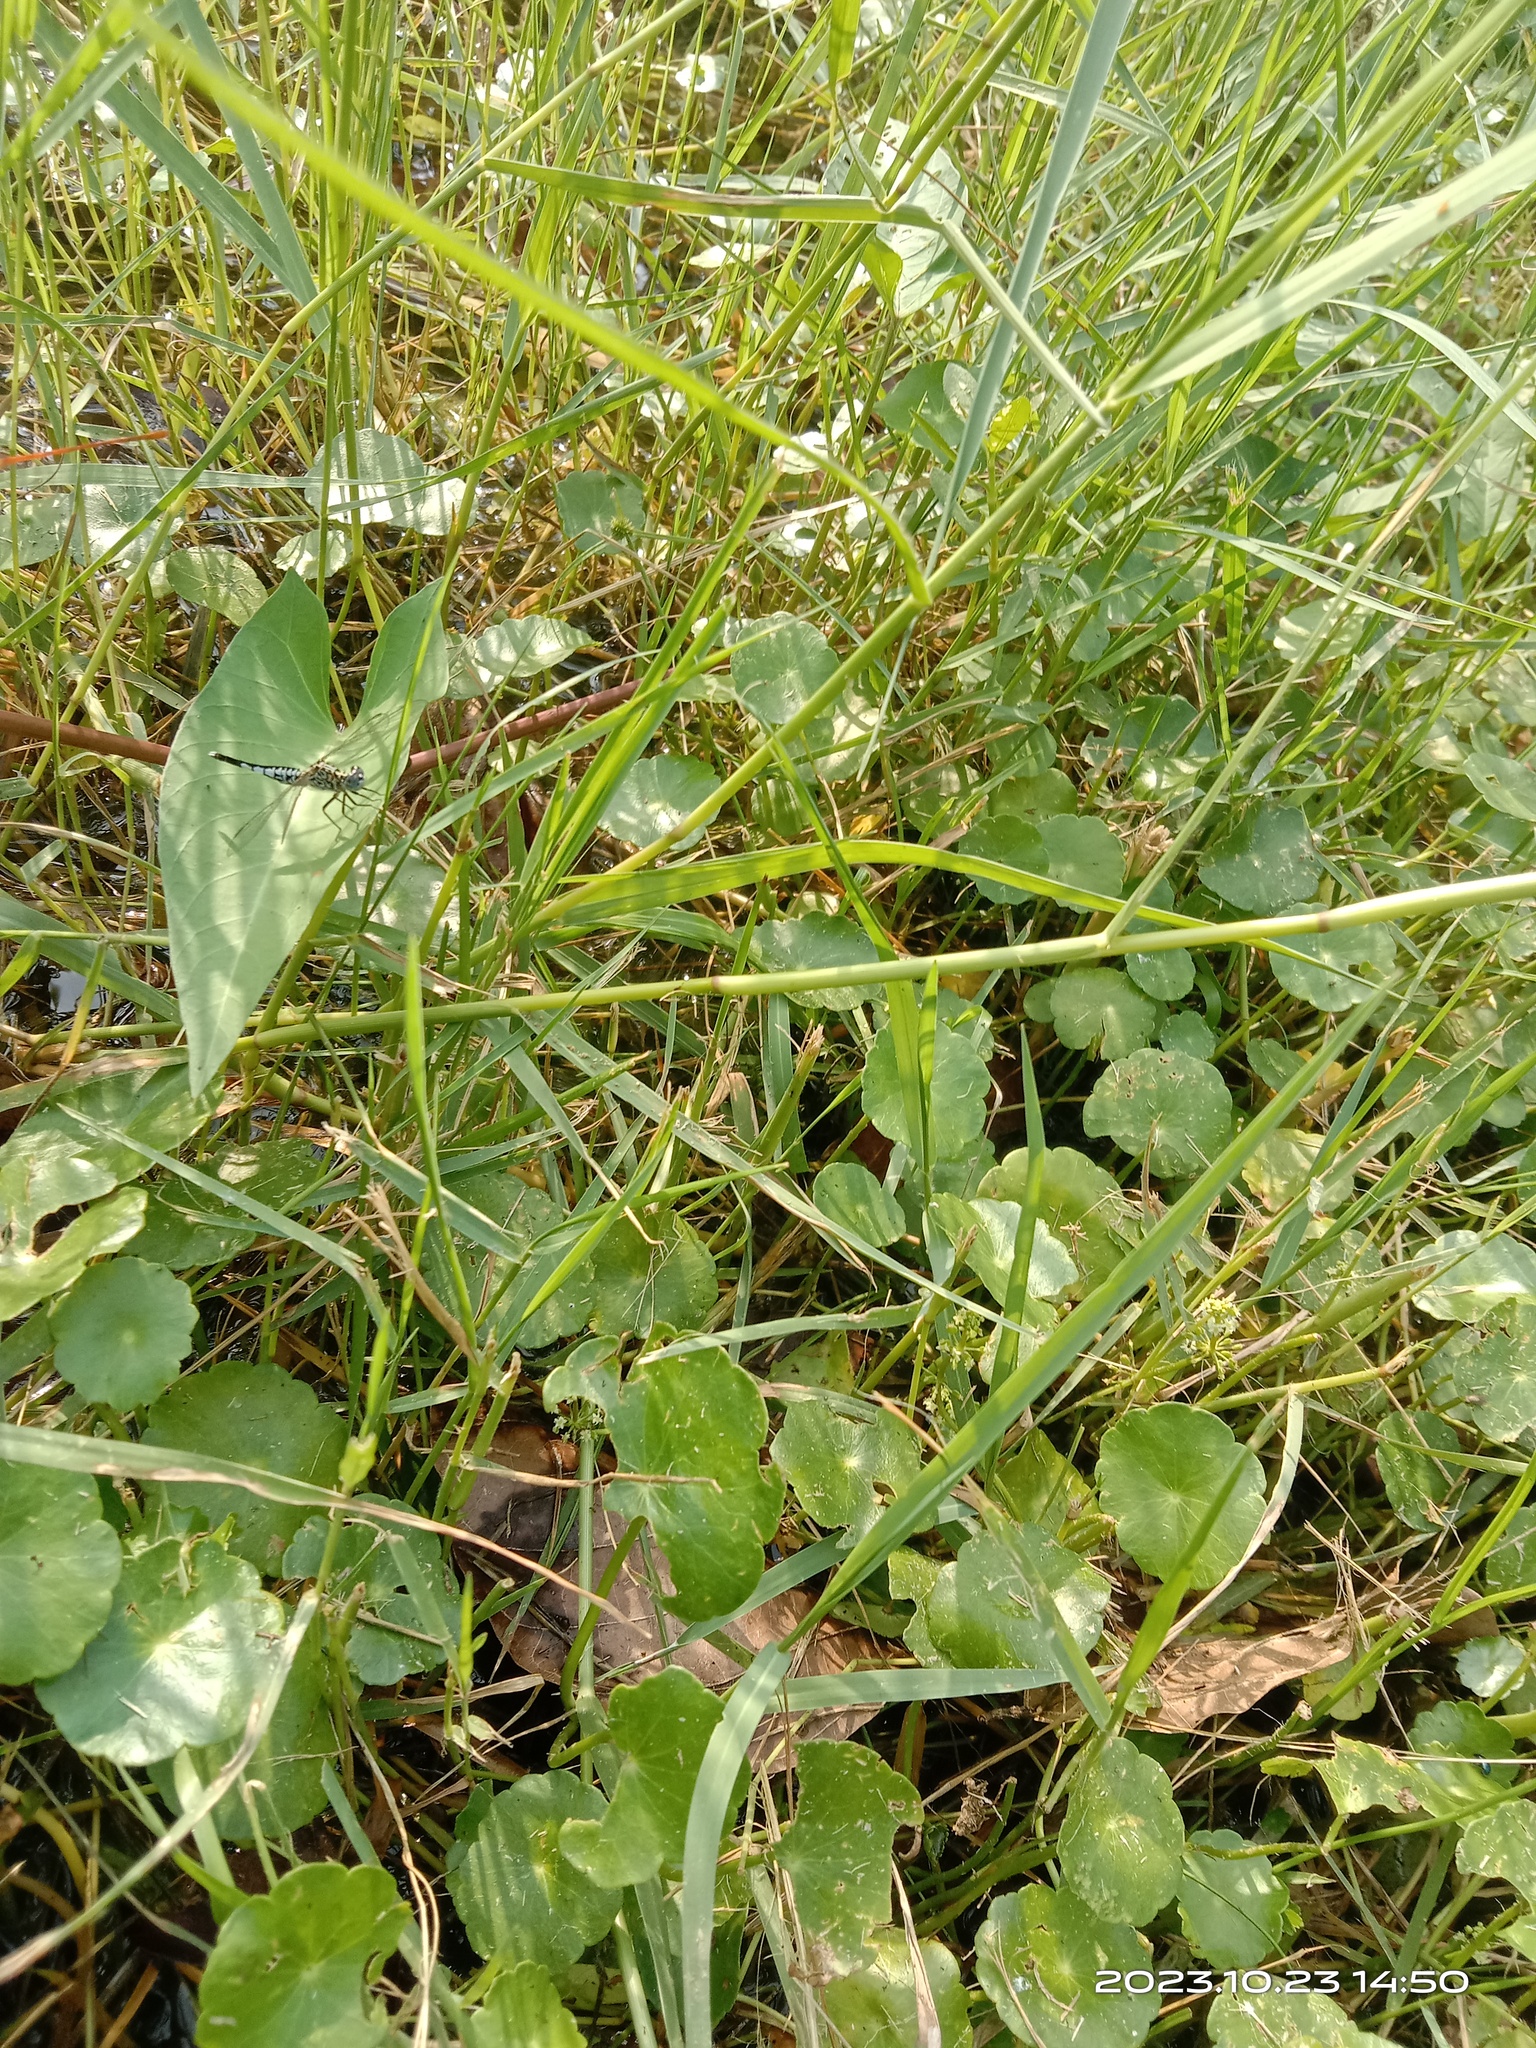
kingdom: Animalia
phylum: Arthropoda
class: Insecta
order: Odonata
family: Libellulidae
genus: Acisoma
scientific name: Acisoma panorpoides
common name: Asian pintail
